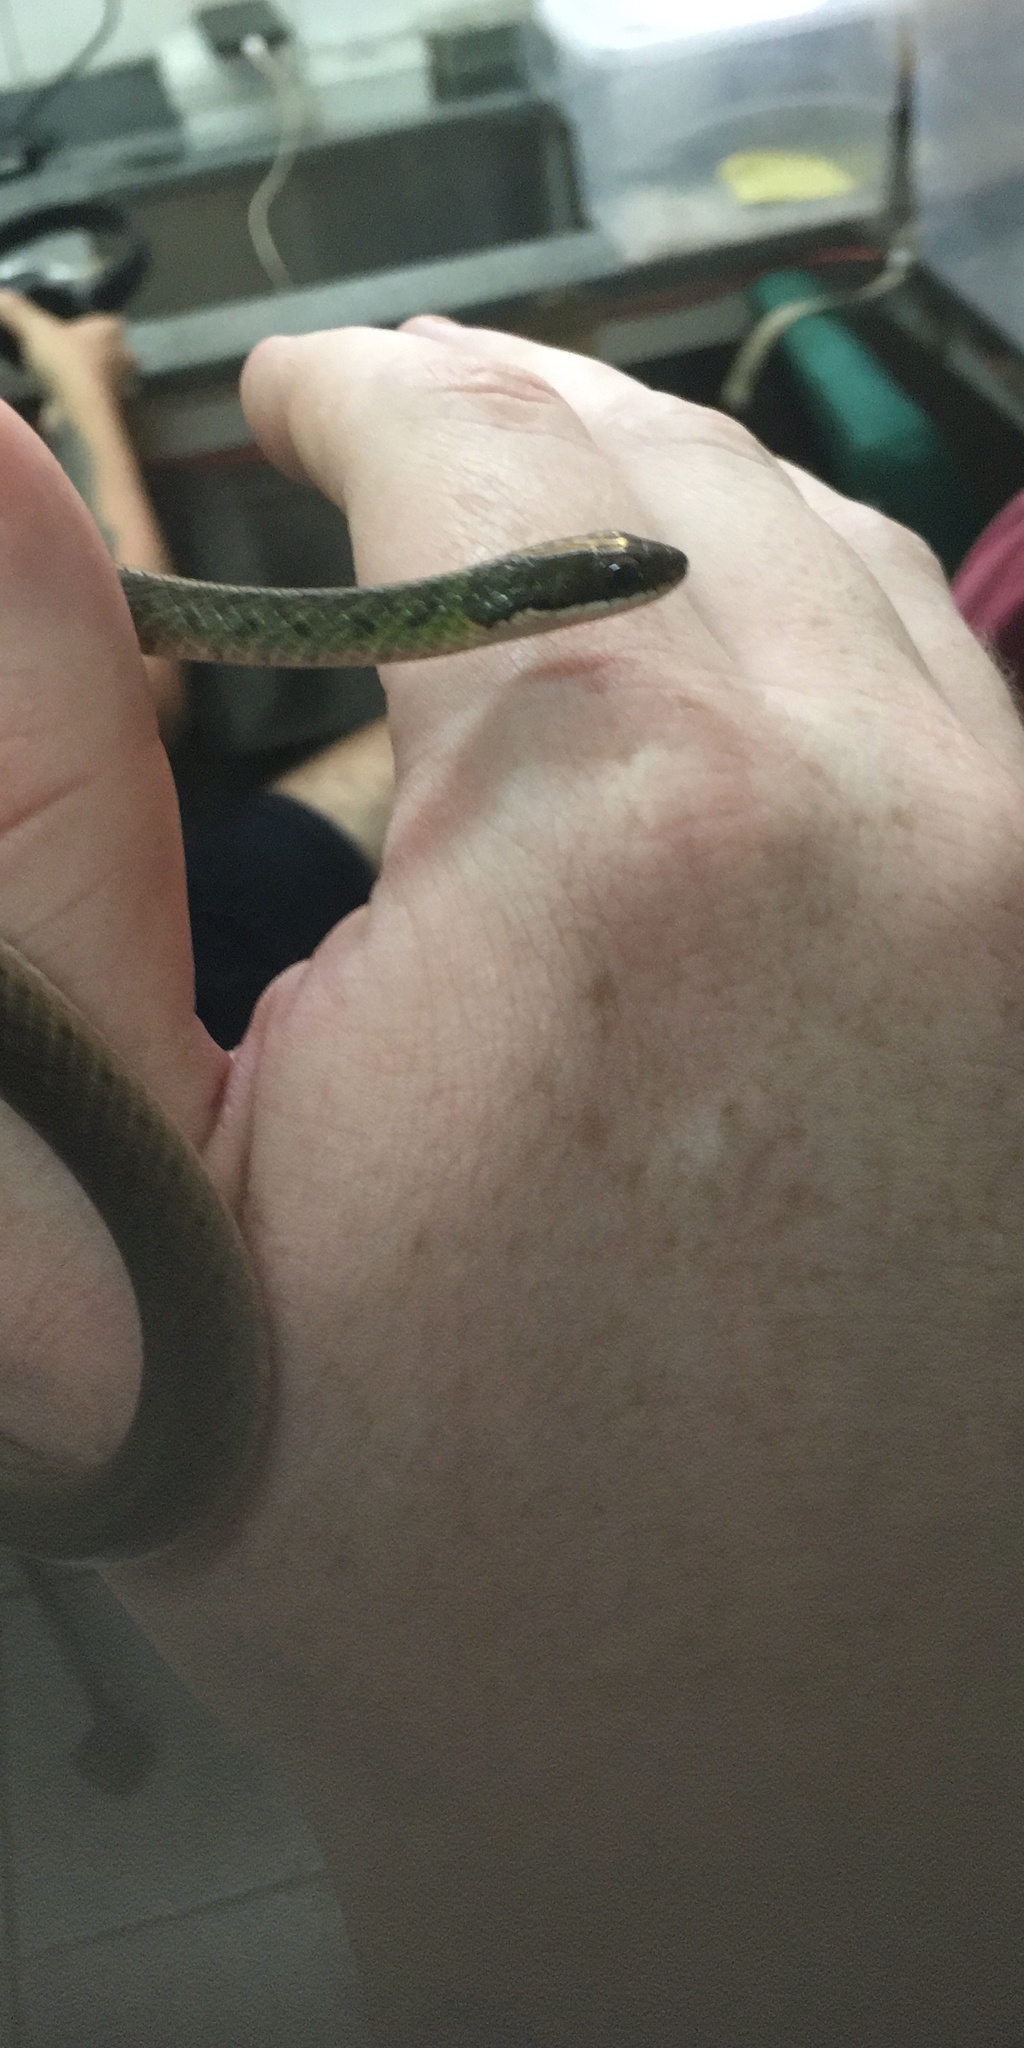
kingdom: Animalia
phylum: Chordata
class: Squamata
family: Colubridae
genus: Erythrolamprus
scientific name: Erythrolamprus reginae
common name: Royal ground snake
